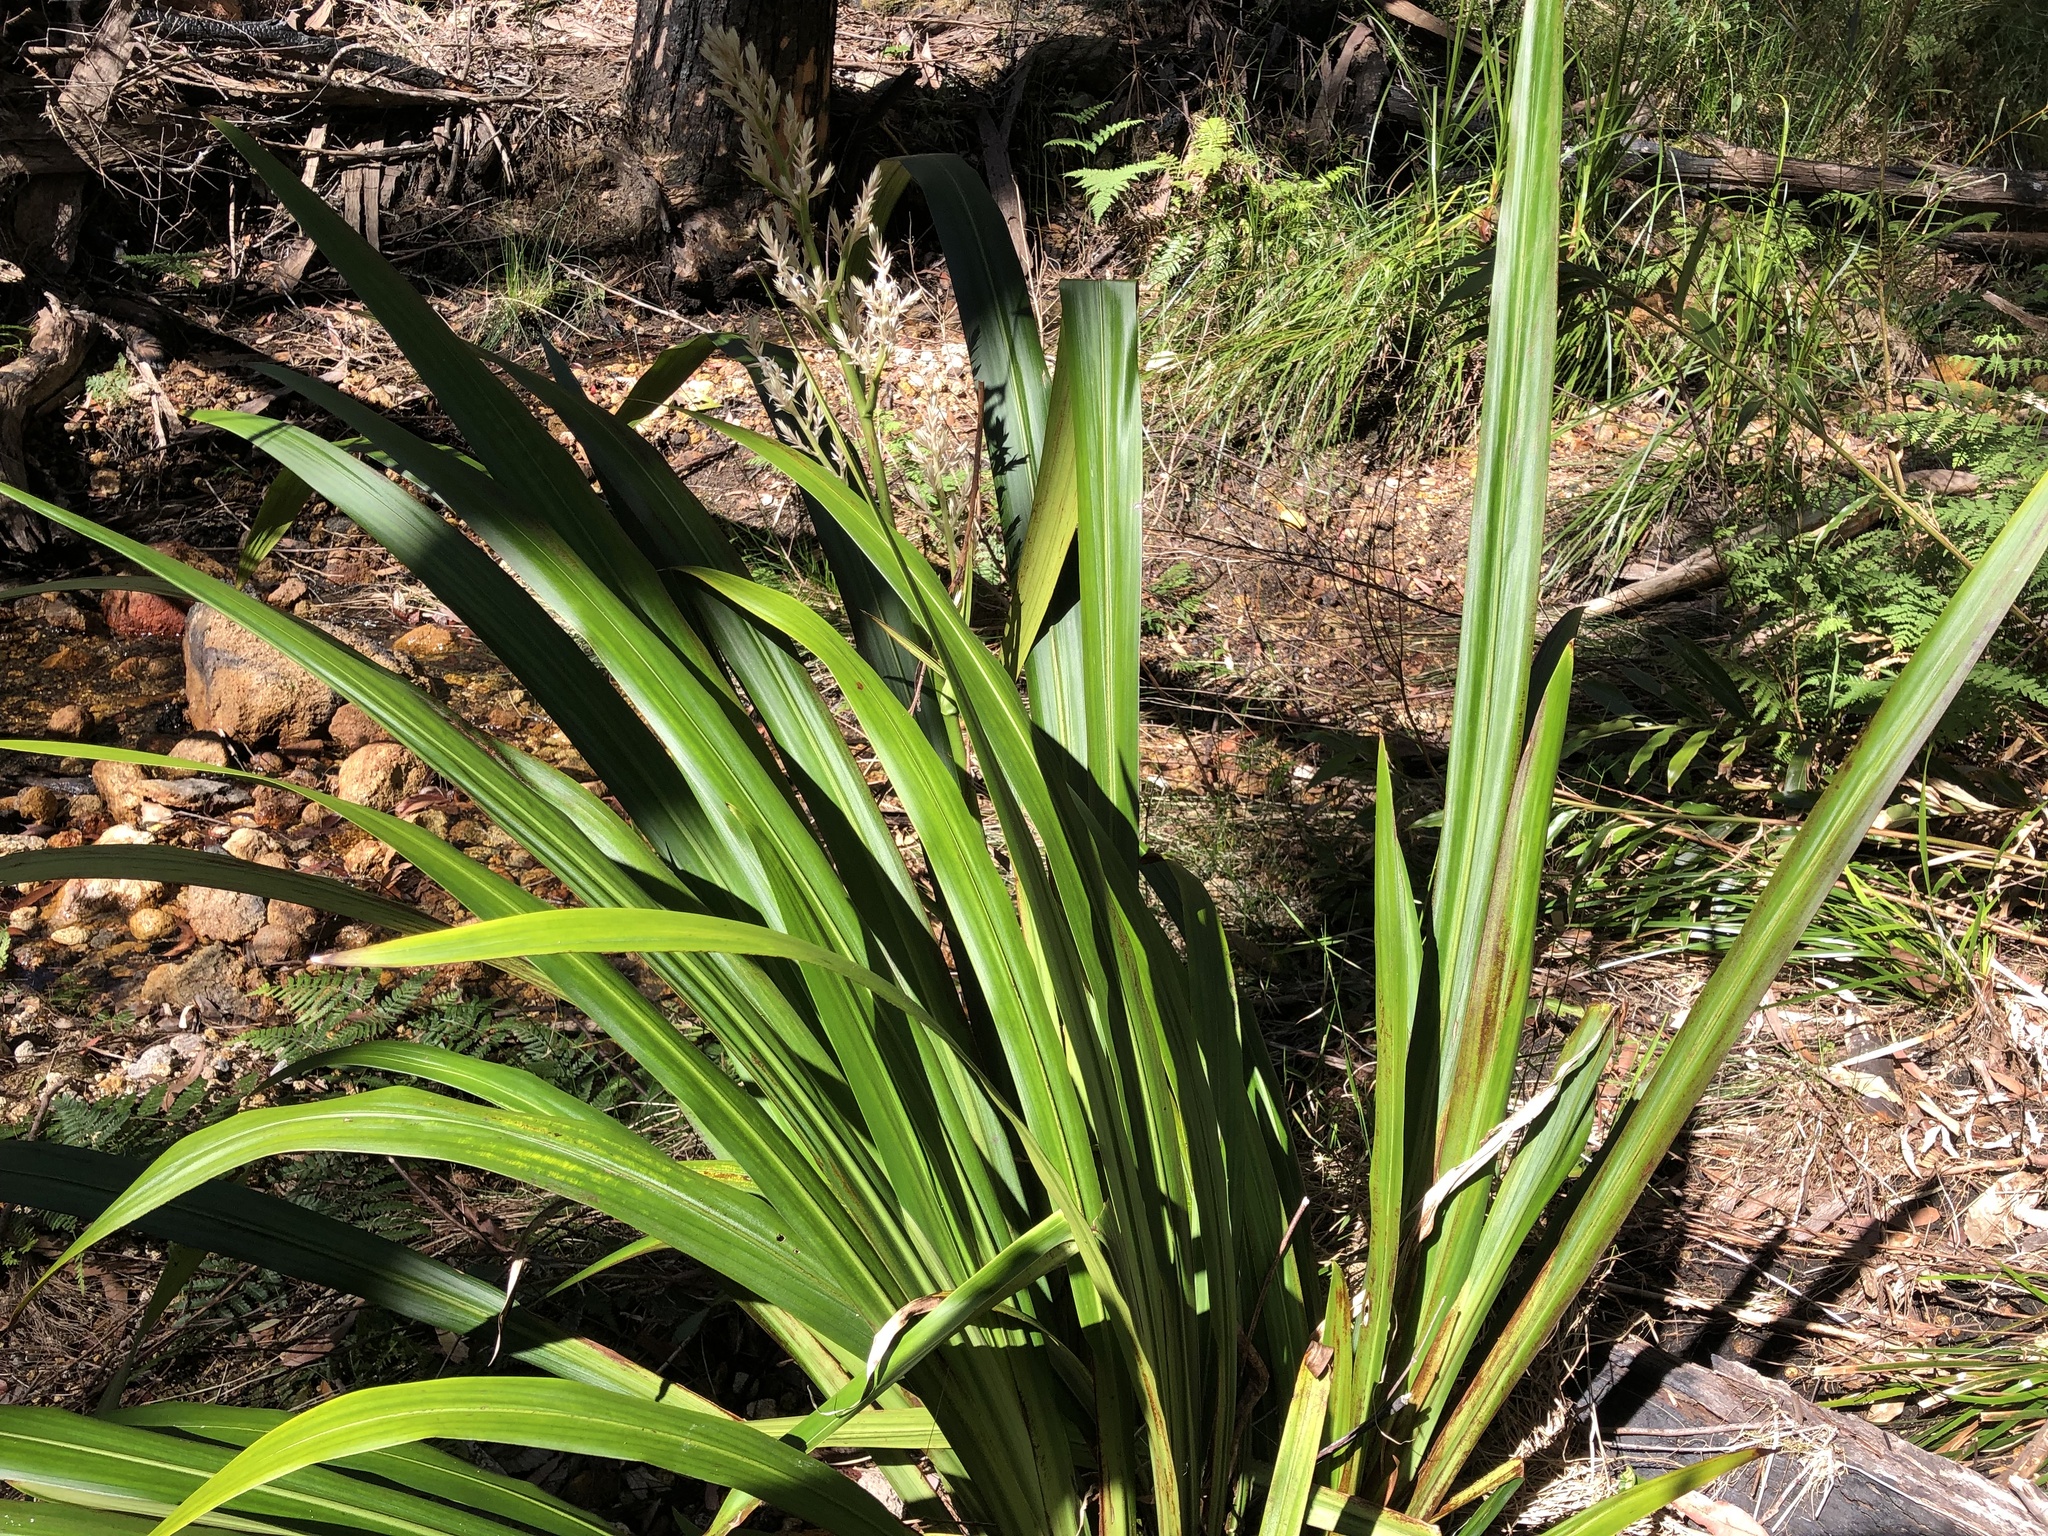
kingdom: Plantae
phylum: Tracheophyta
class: Liliopsida
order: Commelinales
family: Philydraceae
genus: Helmholtzia
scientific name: Helmholtzia glaberrima
